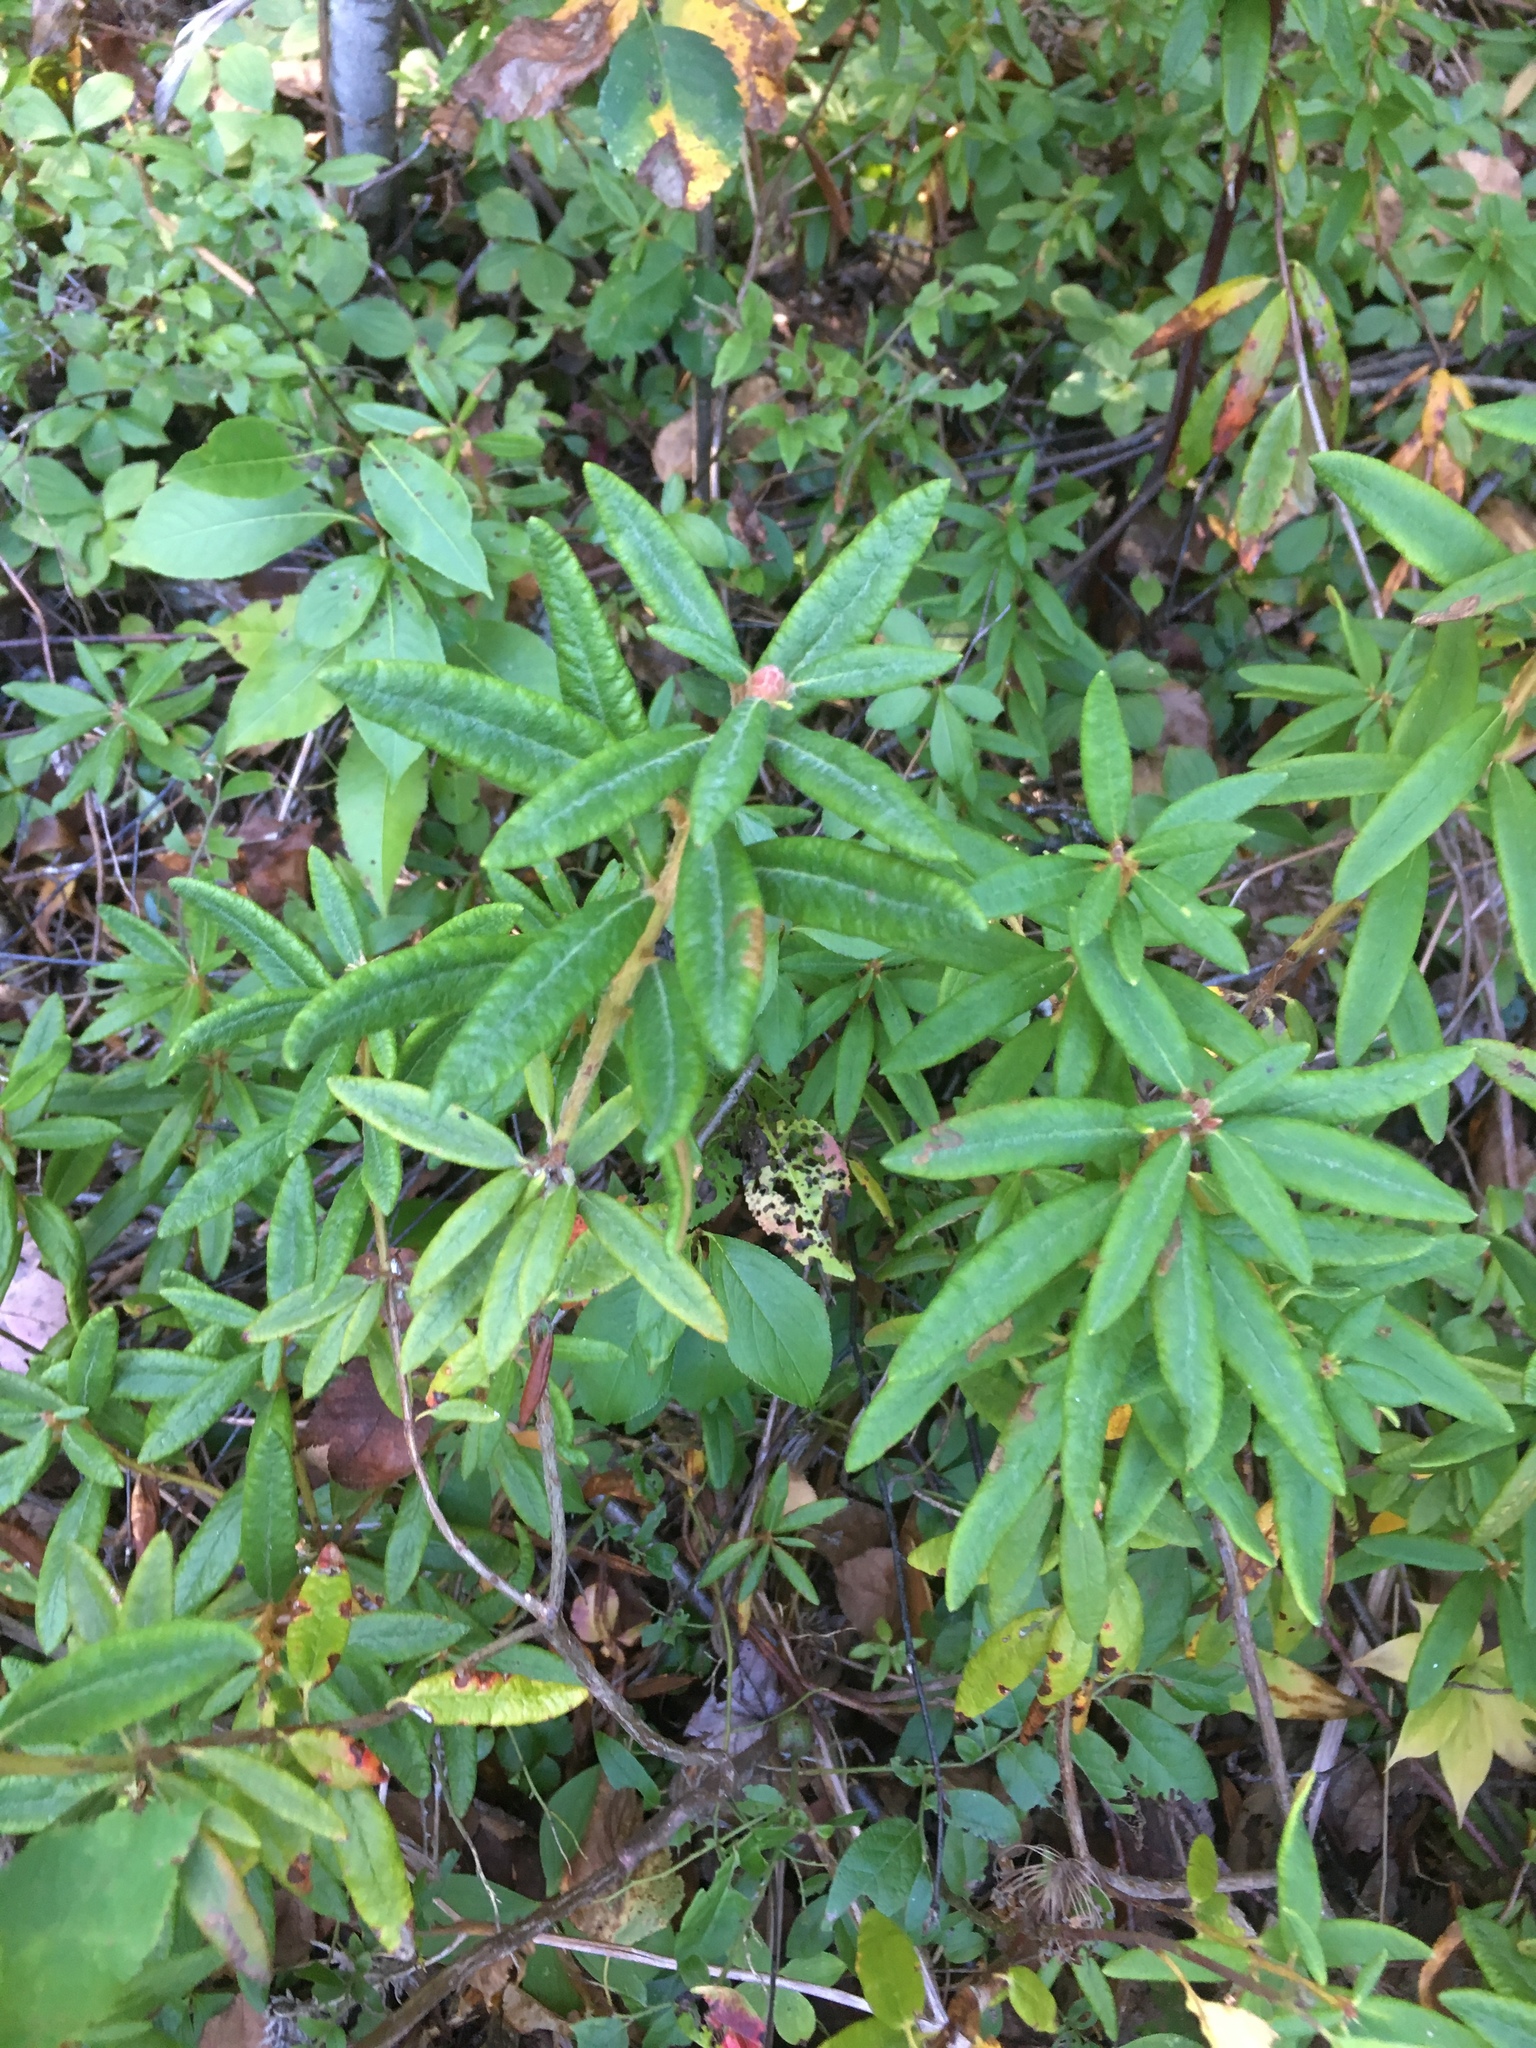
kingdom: Plantae
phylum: Tracheophyta
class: Magnoliopsida
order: Ericales
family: Ericaceae
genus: Rhododendron
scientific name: Rhododendron groenlandicum
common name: Bog labrador tea
